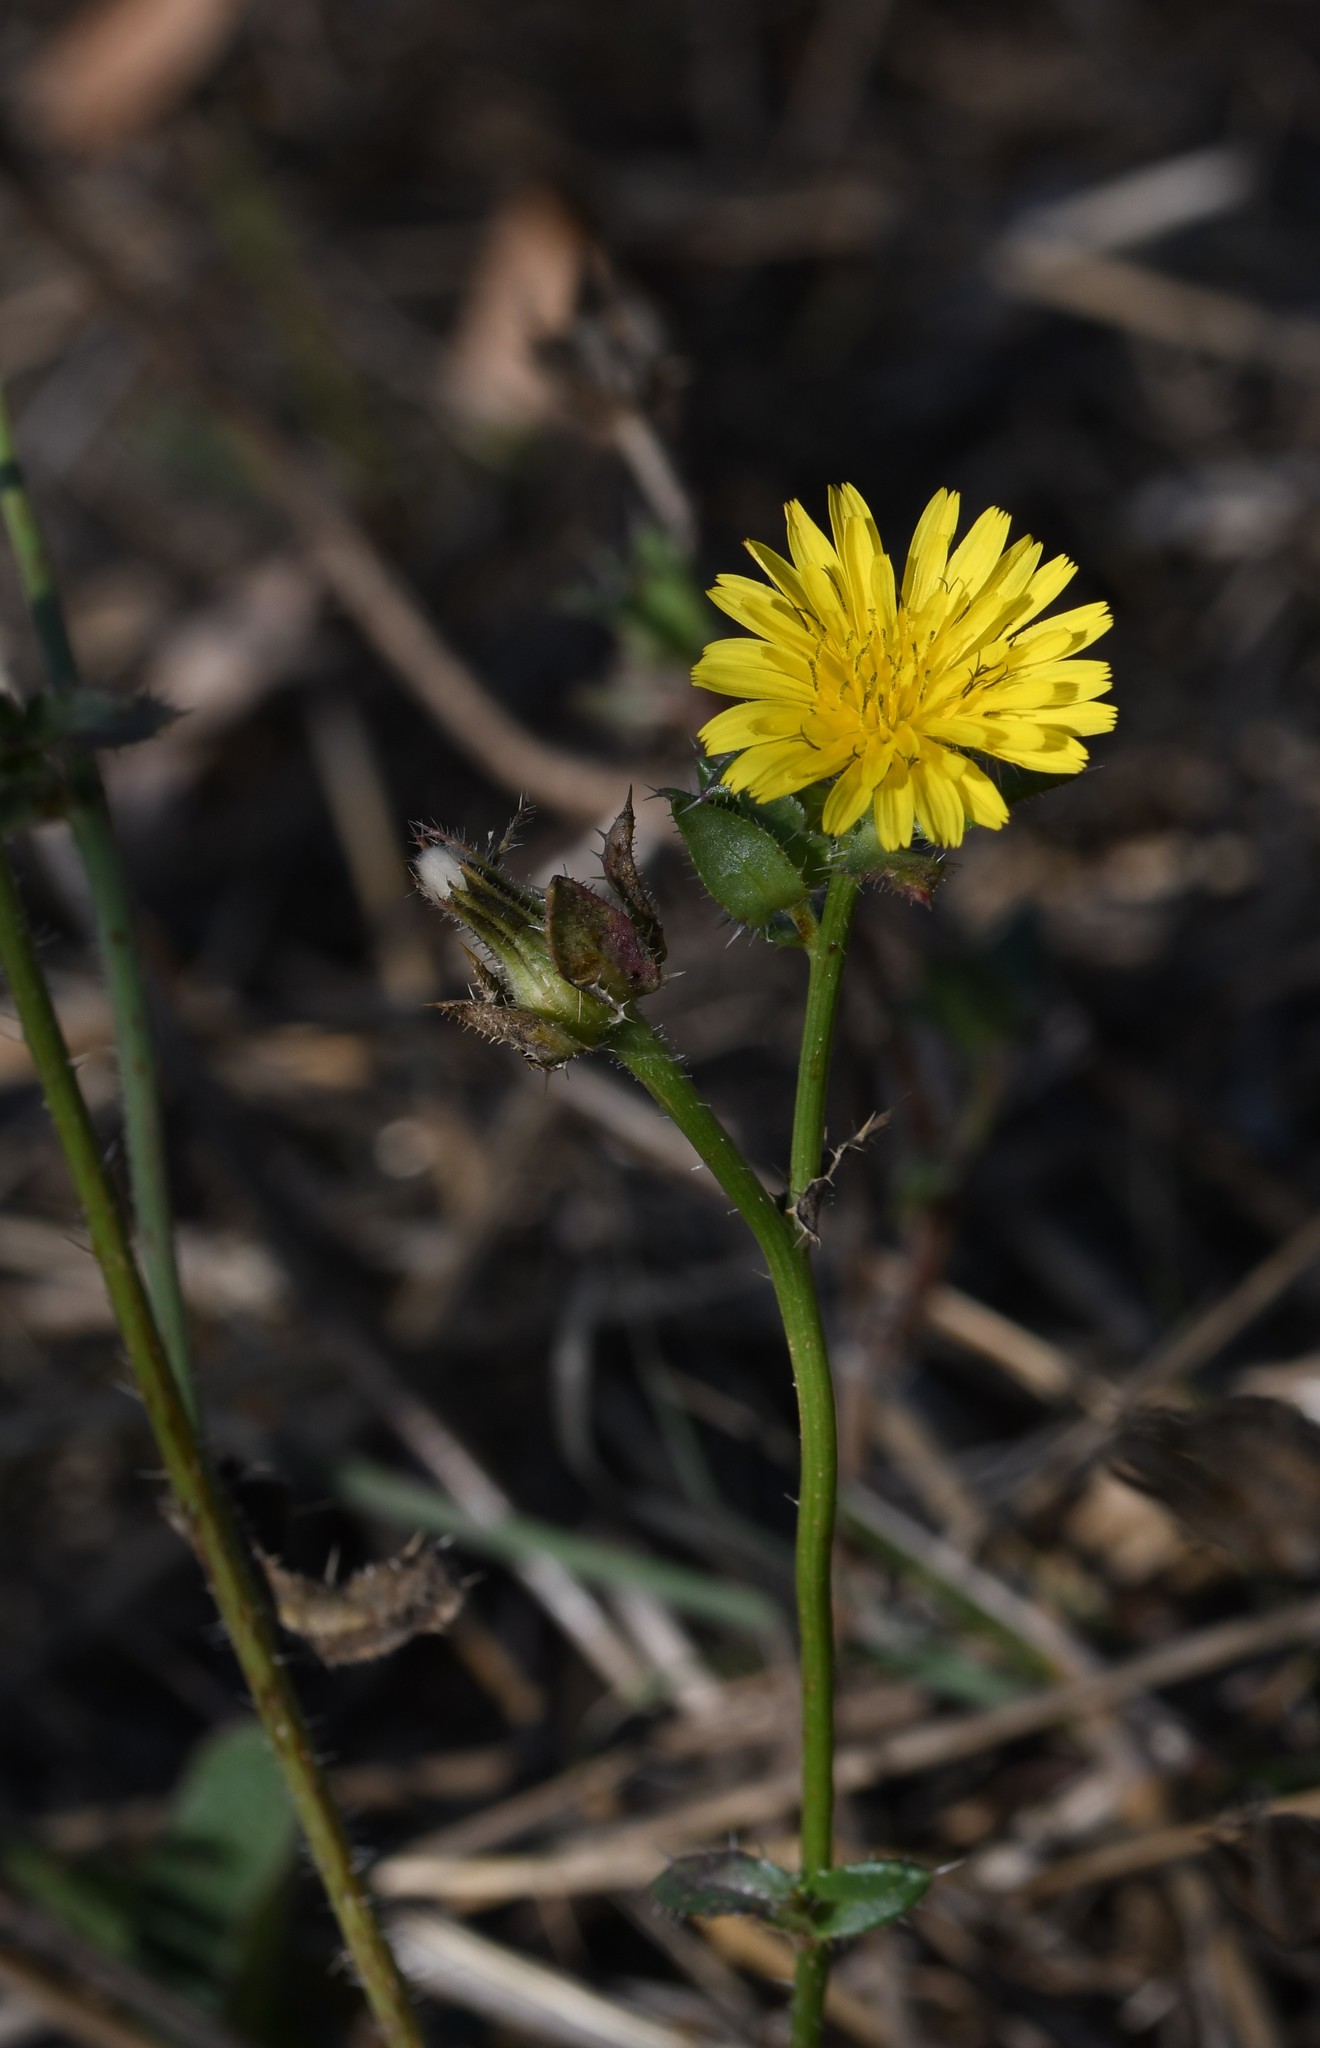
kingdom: Plantae
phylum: Tracheophyta
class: Magnoliopsida
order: Asterales
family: Asteraceae
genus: Helminthotheca
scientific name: Helminthotheca echioides
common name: Ox-tongue
